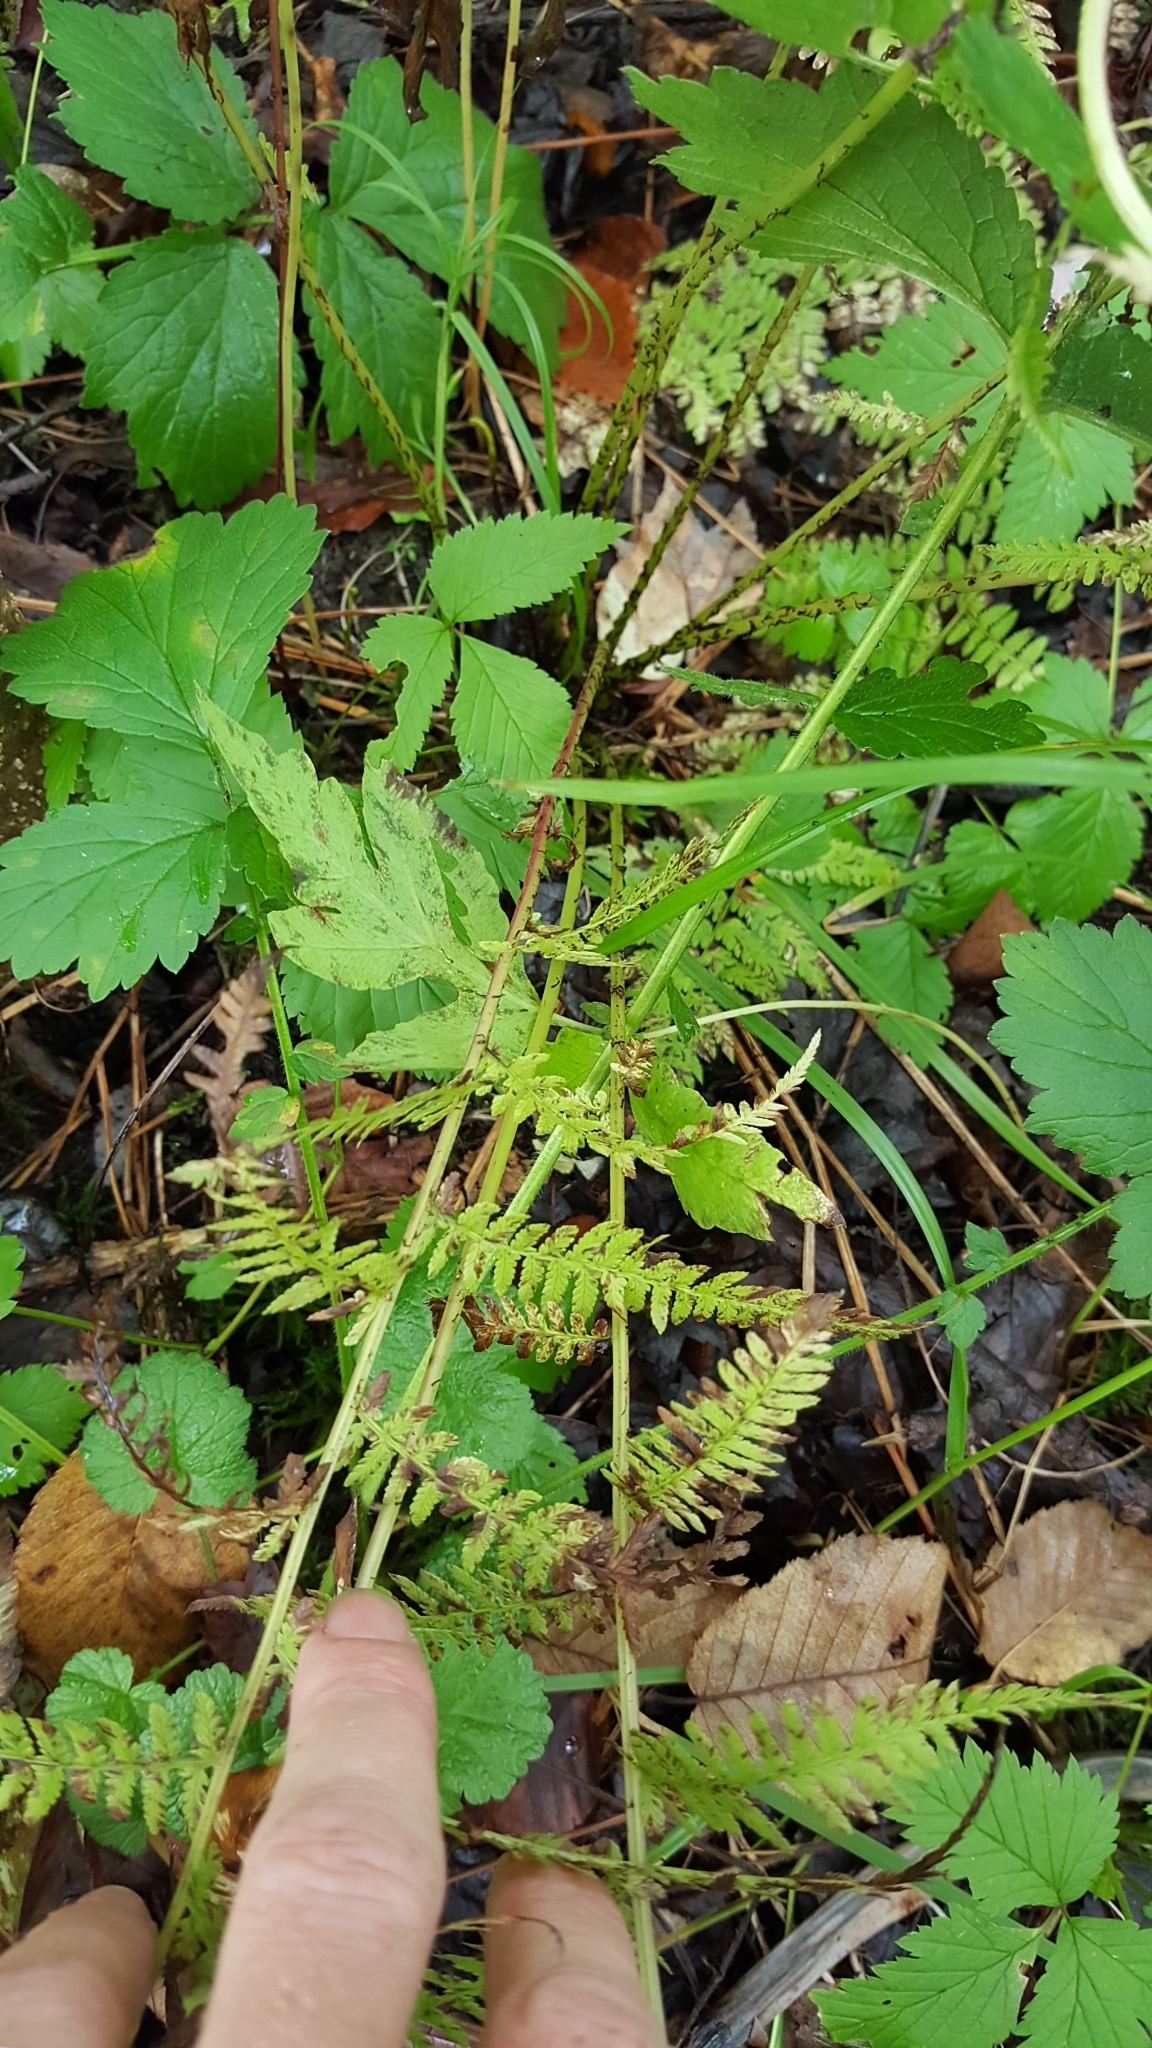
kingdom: Plantae
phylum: Tracheophyta
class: Polypodiopsida
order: Polypodiales
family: Athyriaceae
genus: Athyrium
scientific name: Athyrium angustum
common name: Northern lady fern
